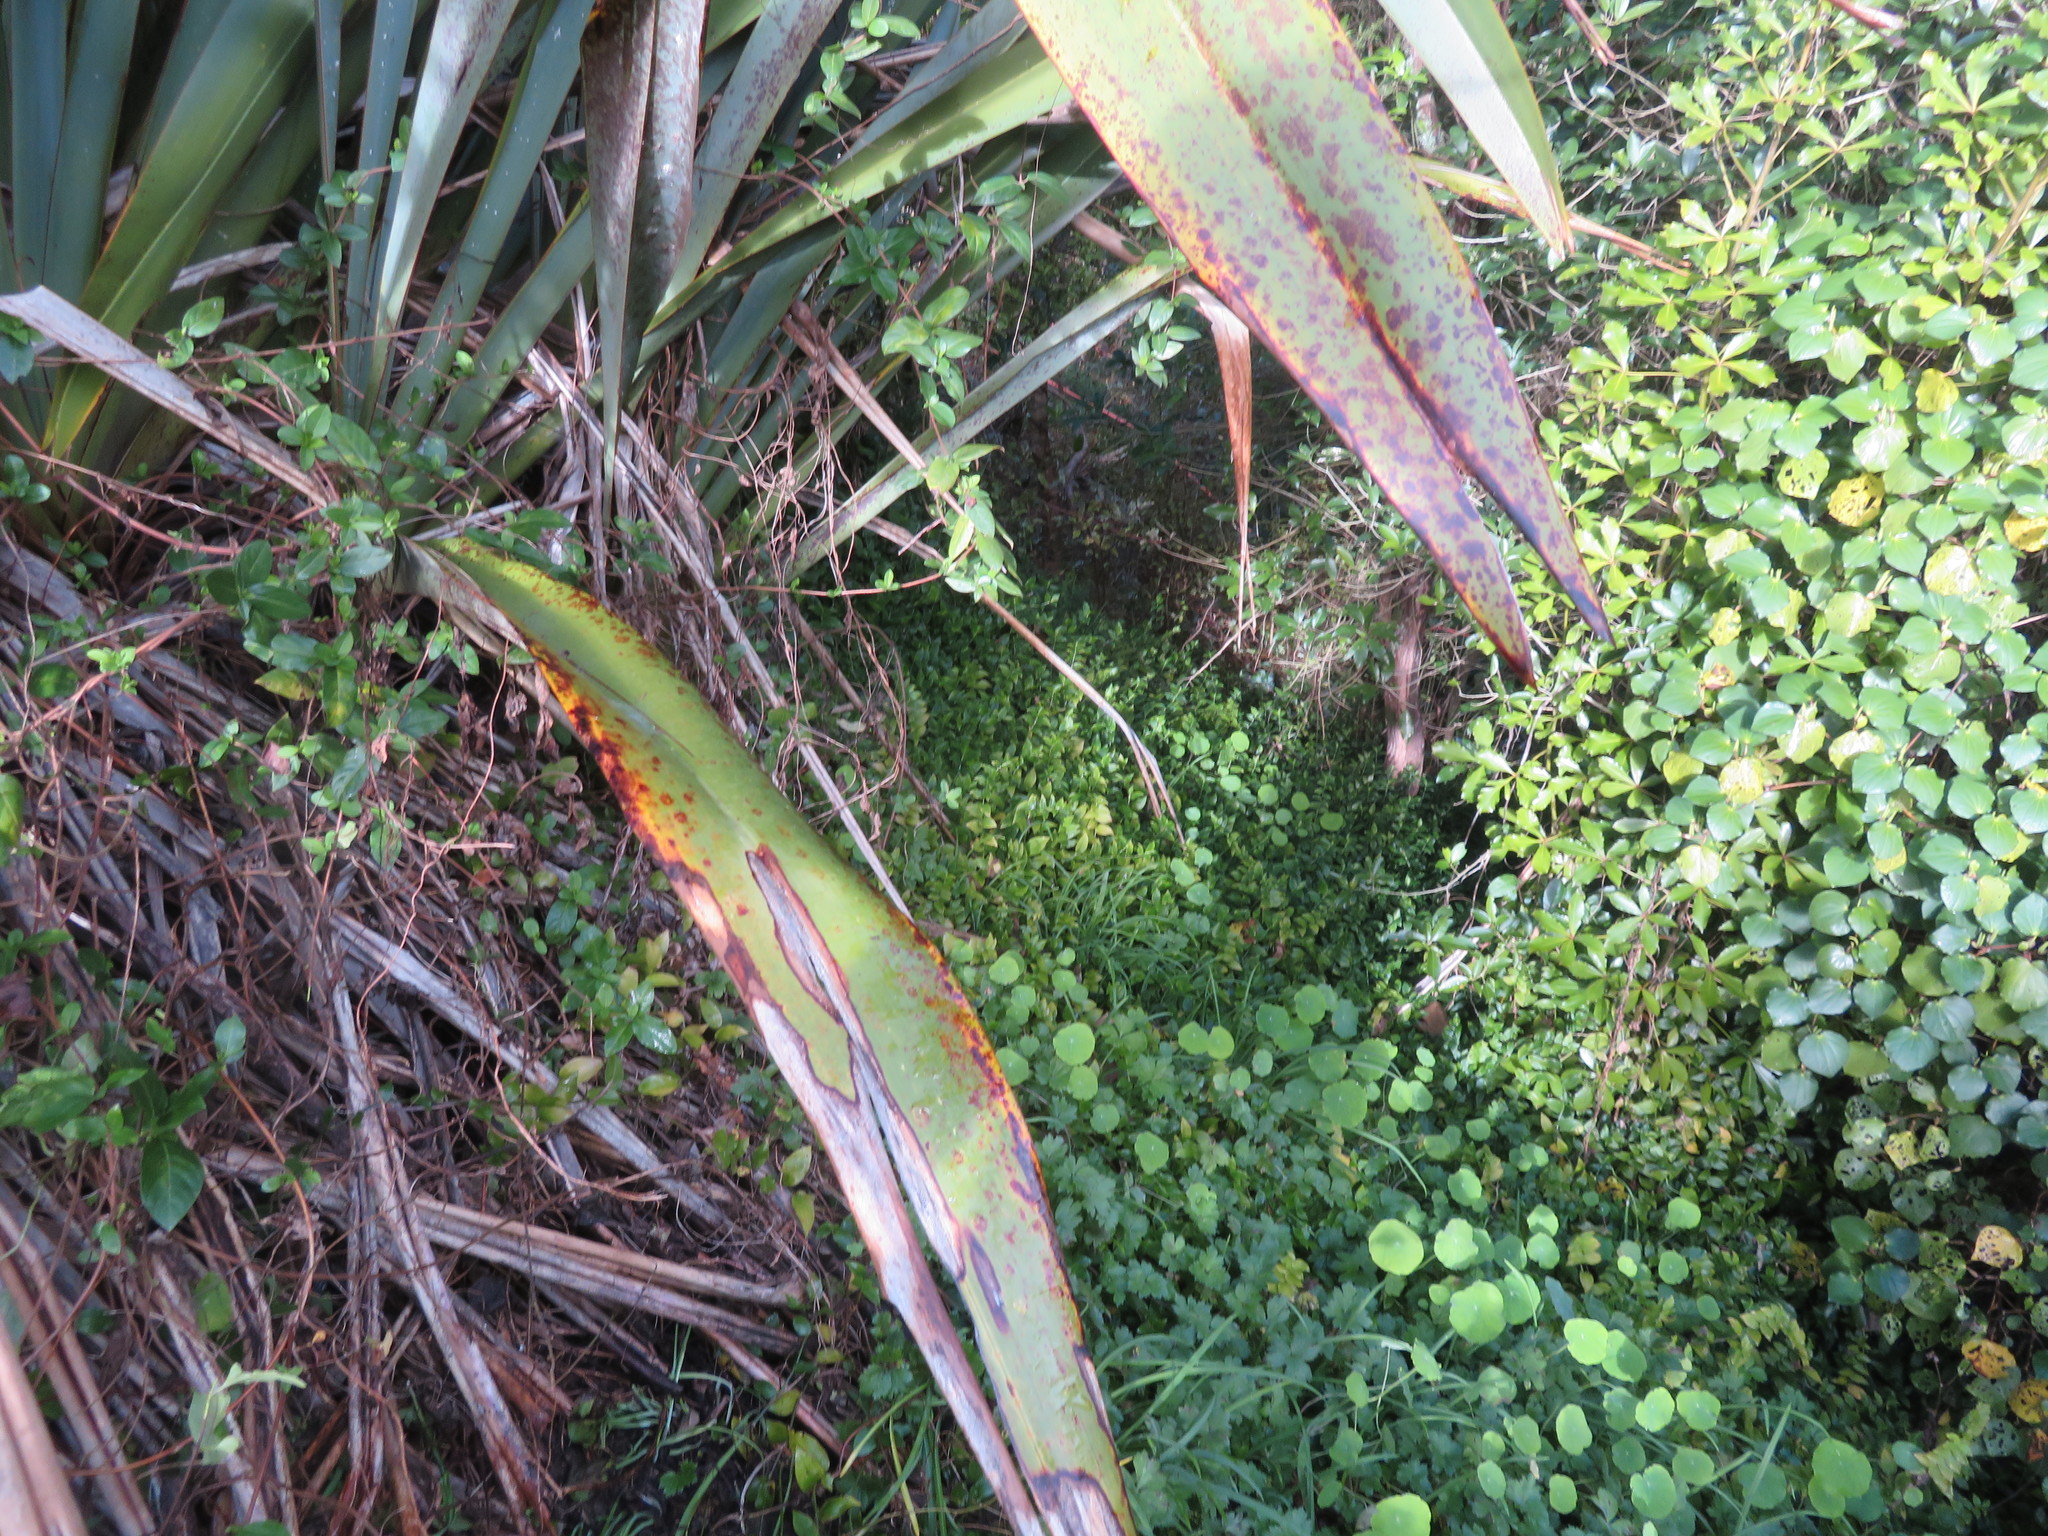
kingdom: Plantae
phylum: Tracheophyta
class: Magnoliopsida
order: Dipsacales
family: Caprifoliaceae
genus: Lonicera
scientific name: Lonicera japonica
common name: Japanese honeysuckle
